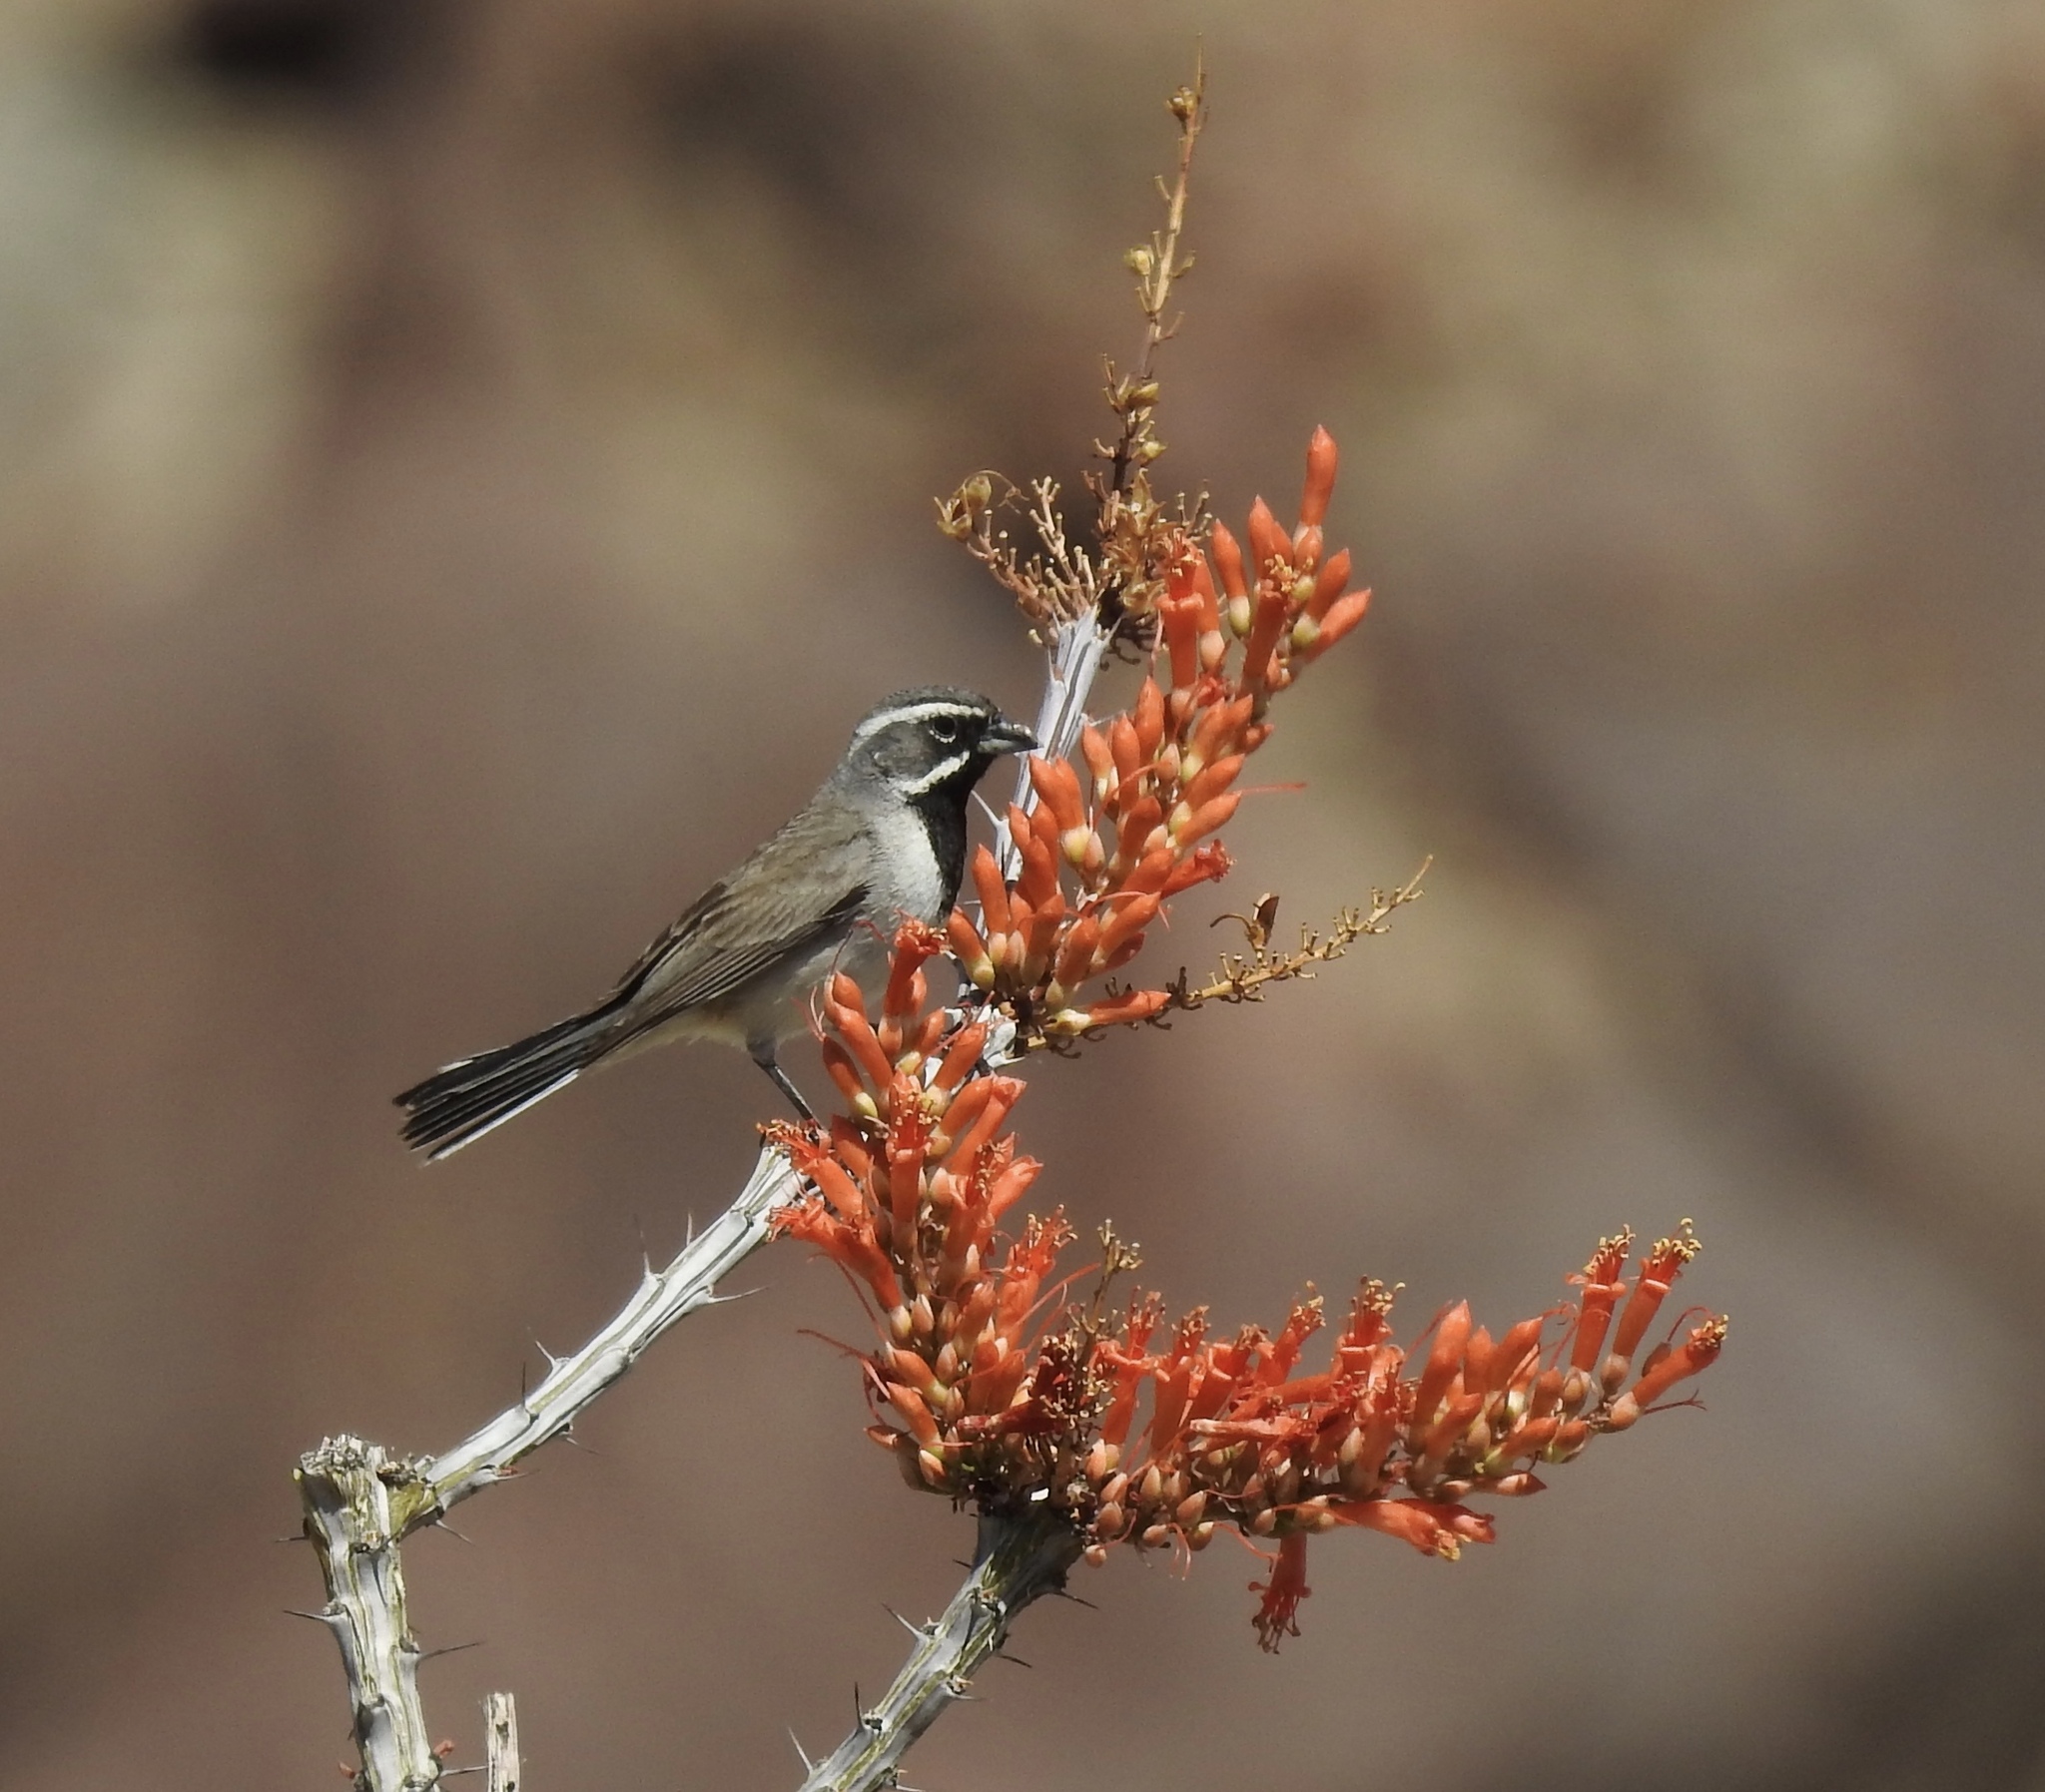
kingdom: Animalia
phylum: Chordata
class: Aves
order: Passeriformes
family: Passerellidae
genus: Amphispiza
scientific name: Amphispiza bilineata
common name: Black-throated sparrow
